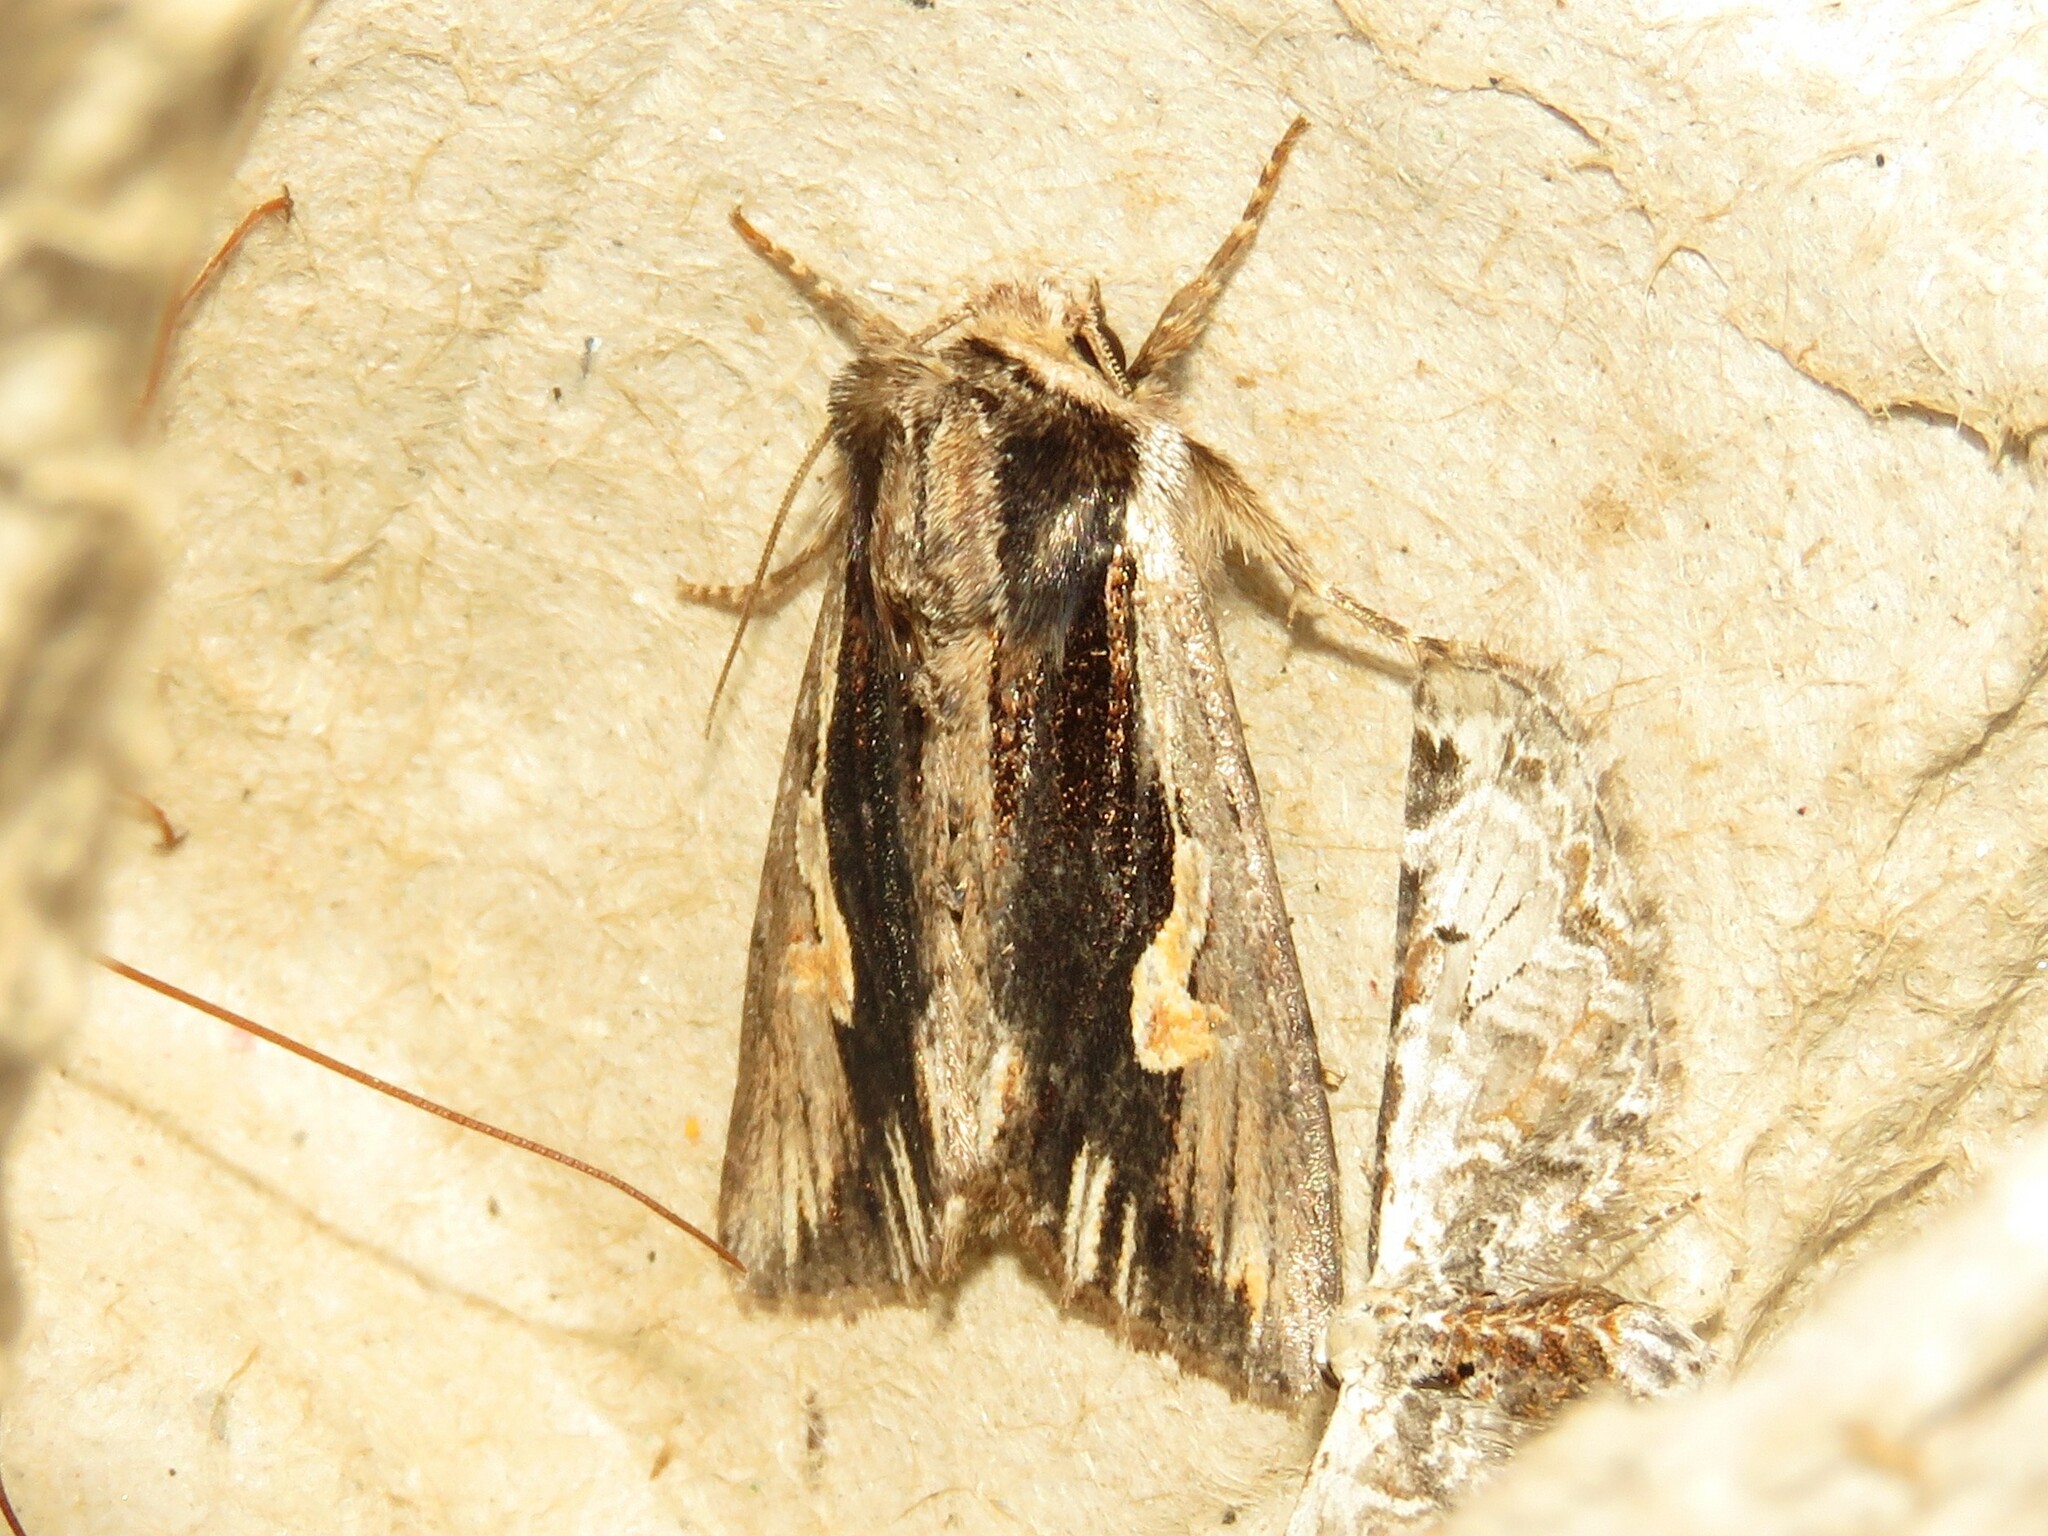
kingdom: Animalia
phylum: Arthropoda
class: Insecta
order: Lepidoptera
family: Noctuidae
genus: Achatia
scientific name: Achatia evicta
